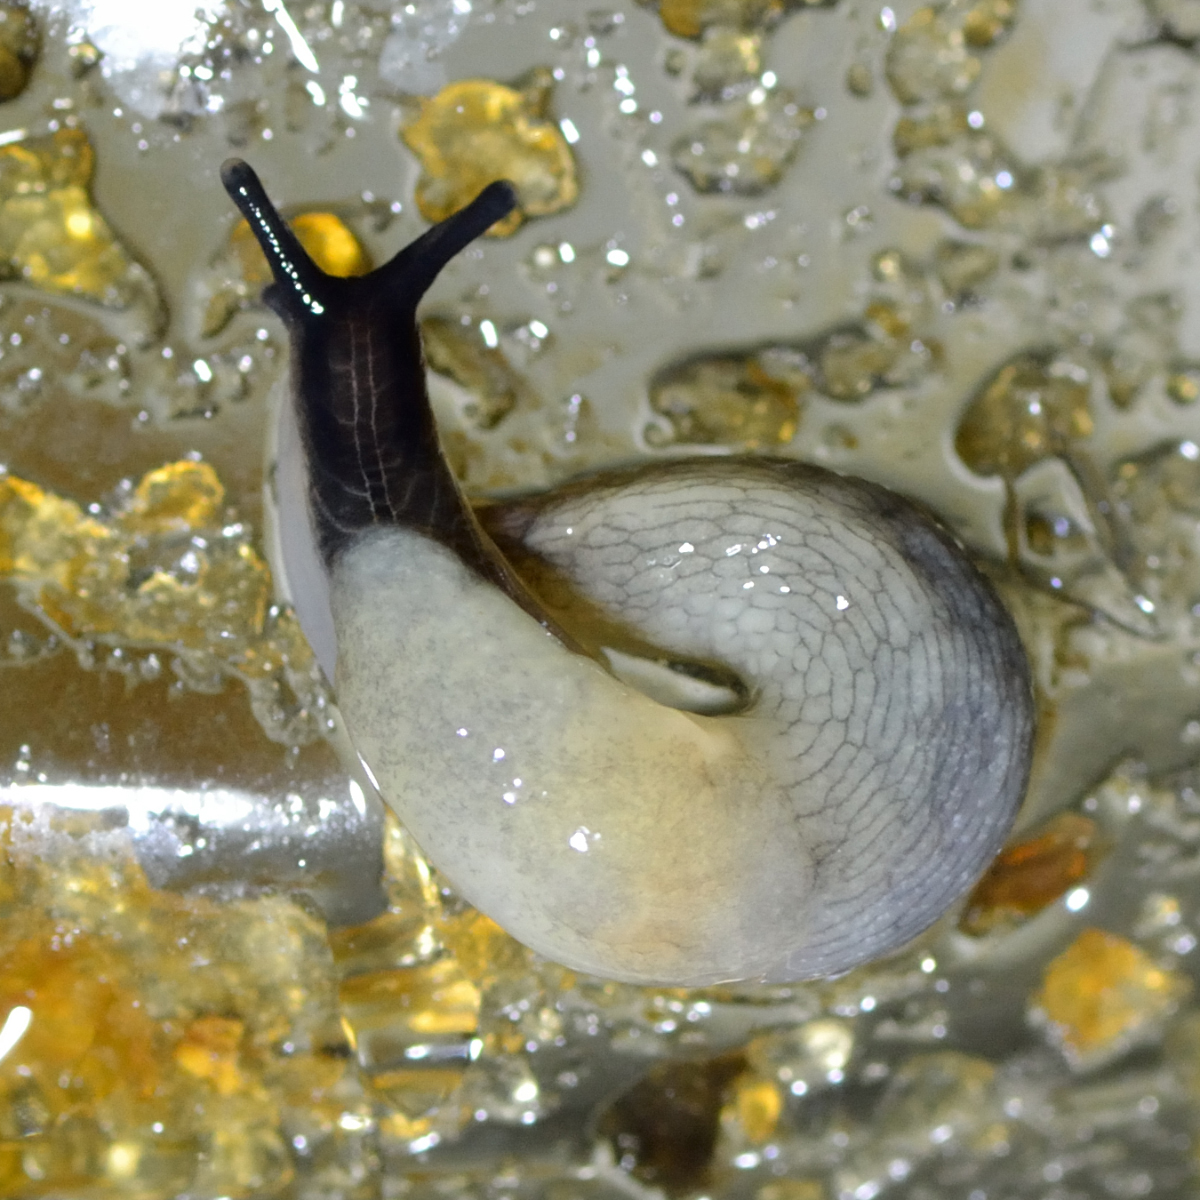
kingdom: Animalia
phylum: Mollusca
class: Gastropoda
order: Stylommatophora
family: Agriolimacidae
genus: Krynickillus
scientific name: Krynickillus melanocephalus
